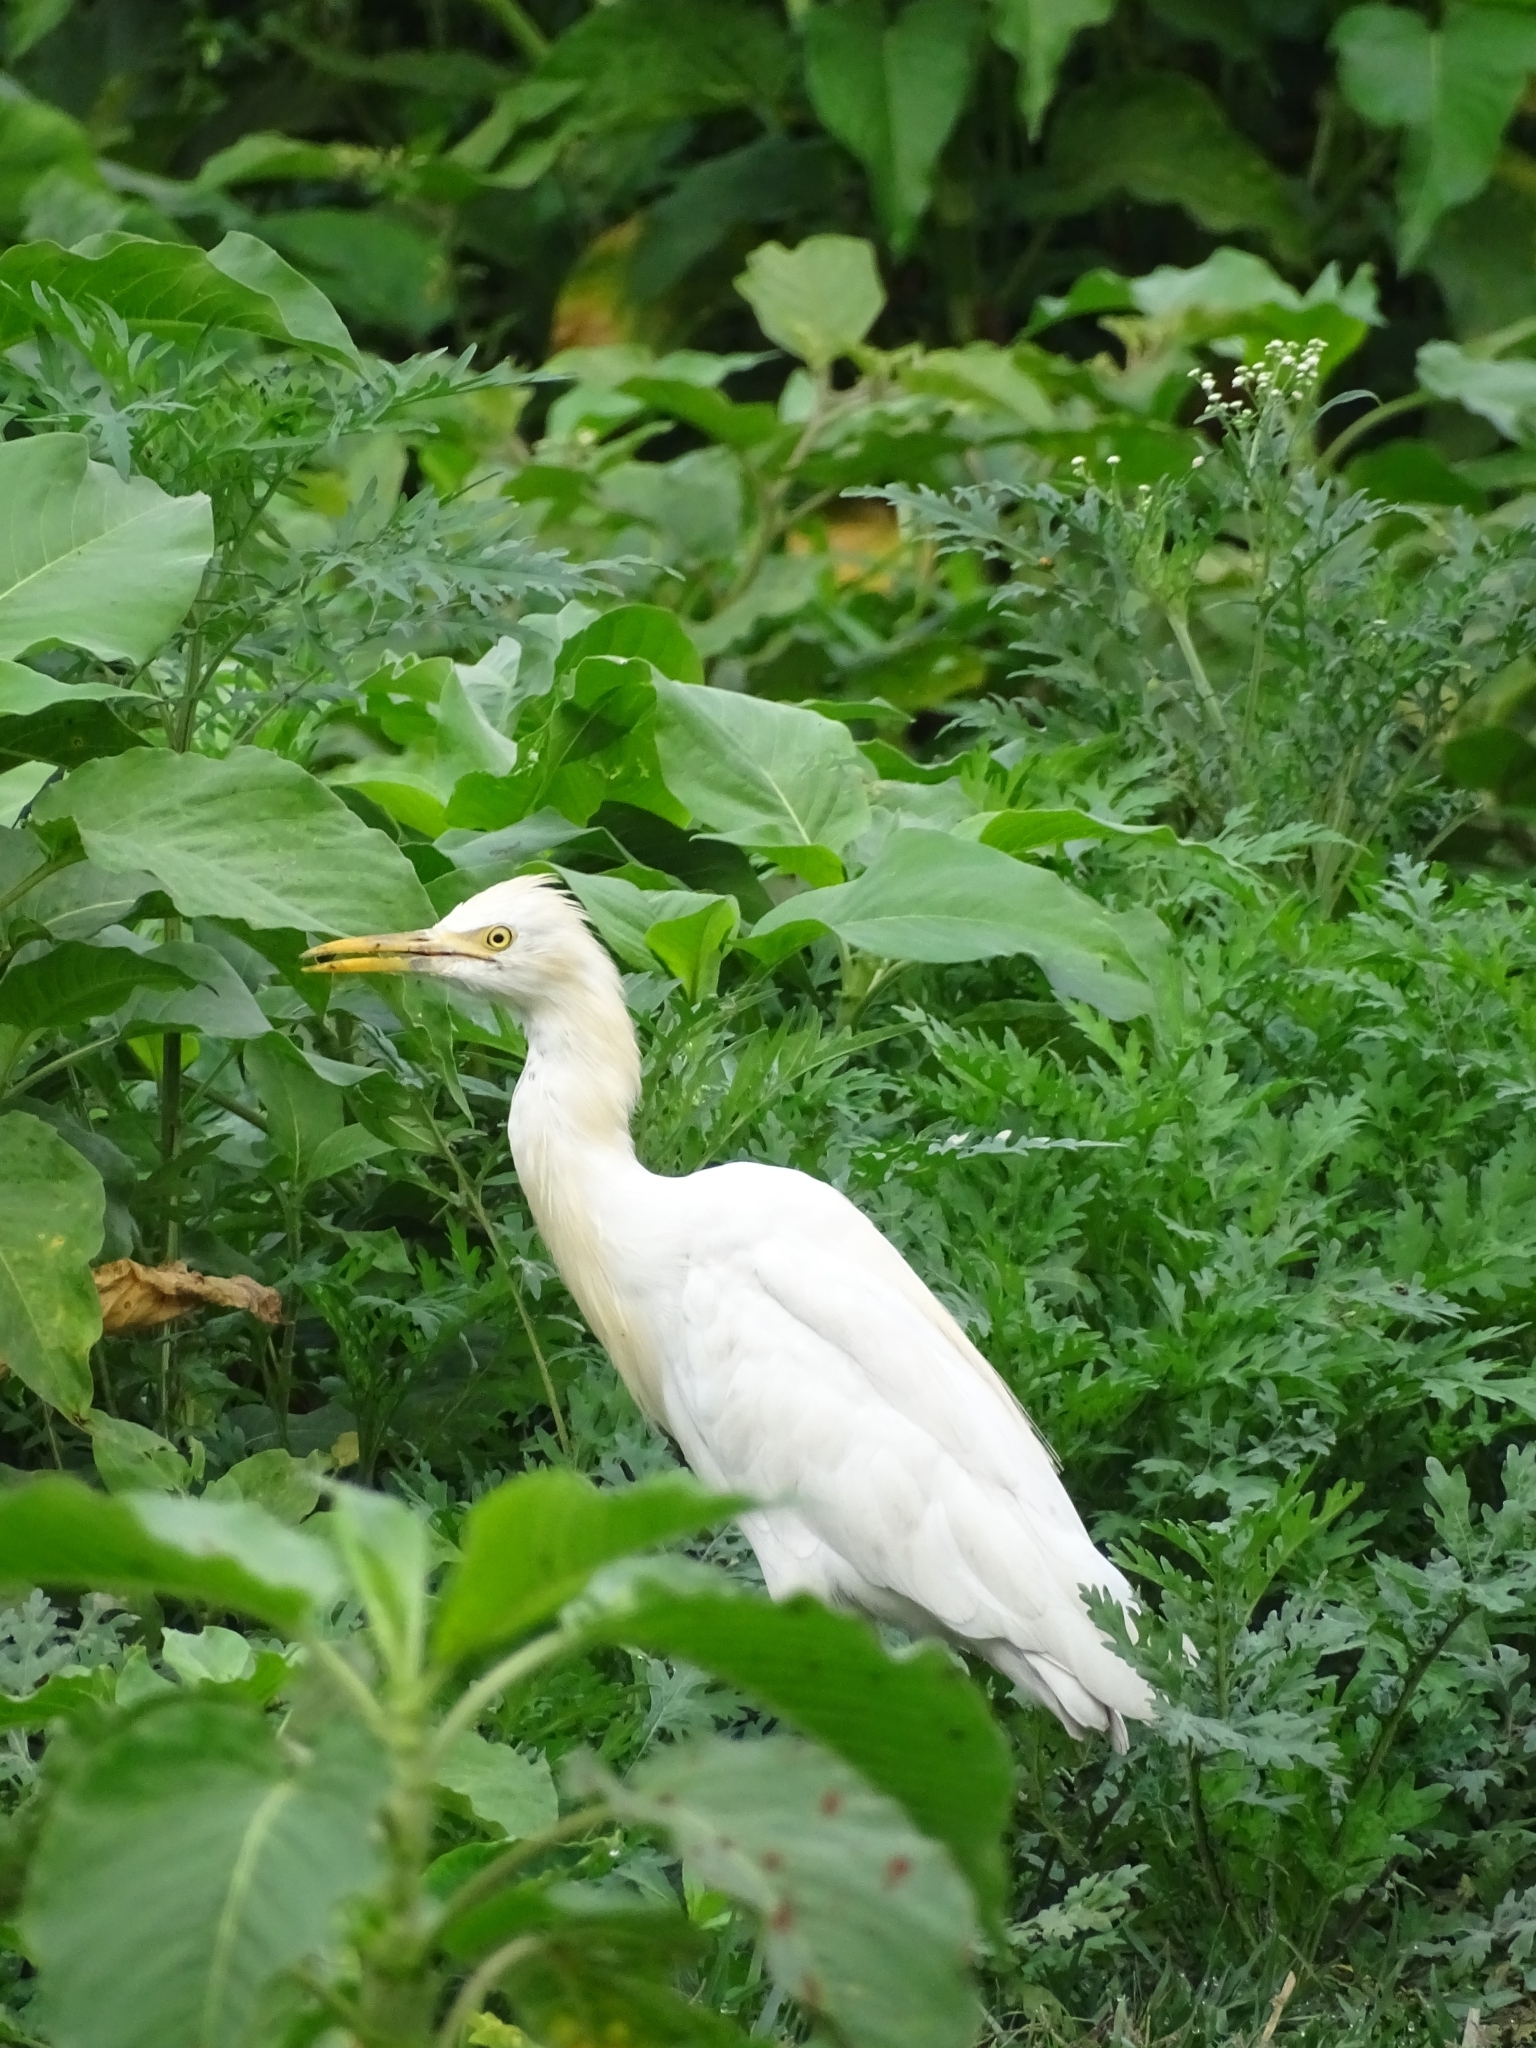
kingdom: Animalia
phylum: Chordata
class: Aves
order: Pelecaniformes
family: Ardeidae
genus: Bubulcus
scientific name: Bubulcus coromandus
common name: Eastern cattle egret
